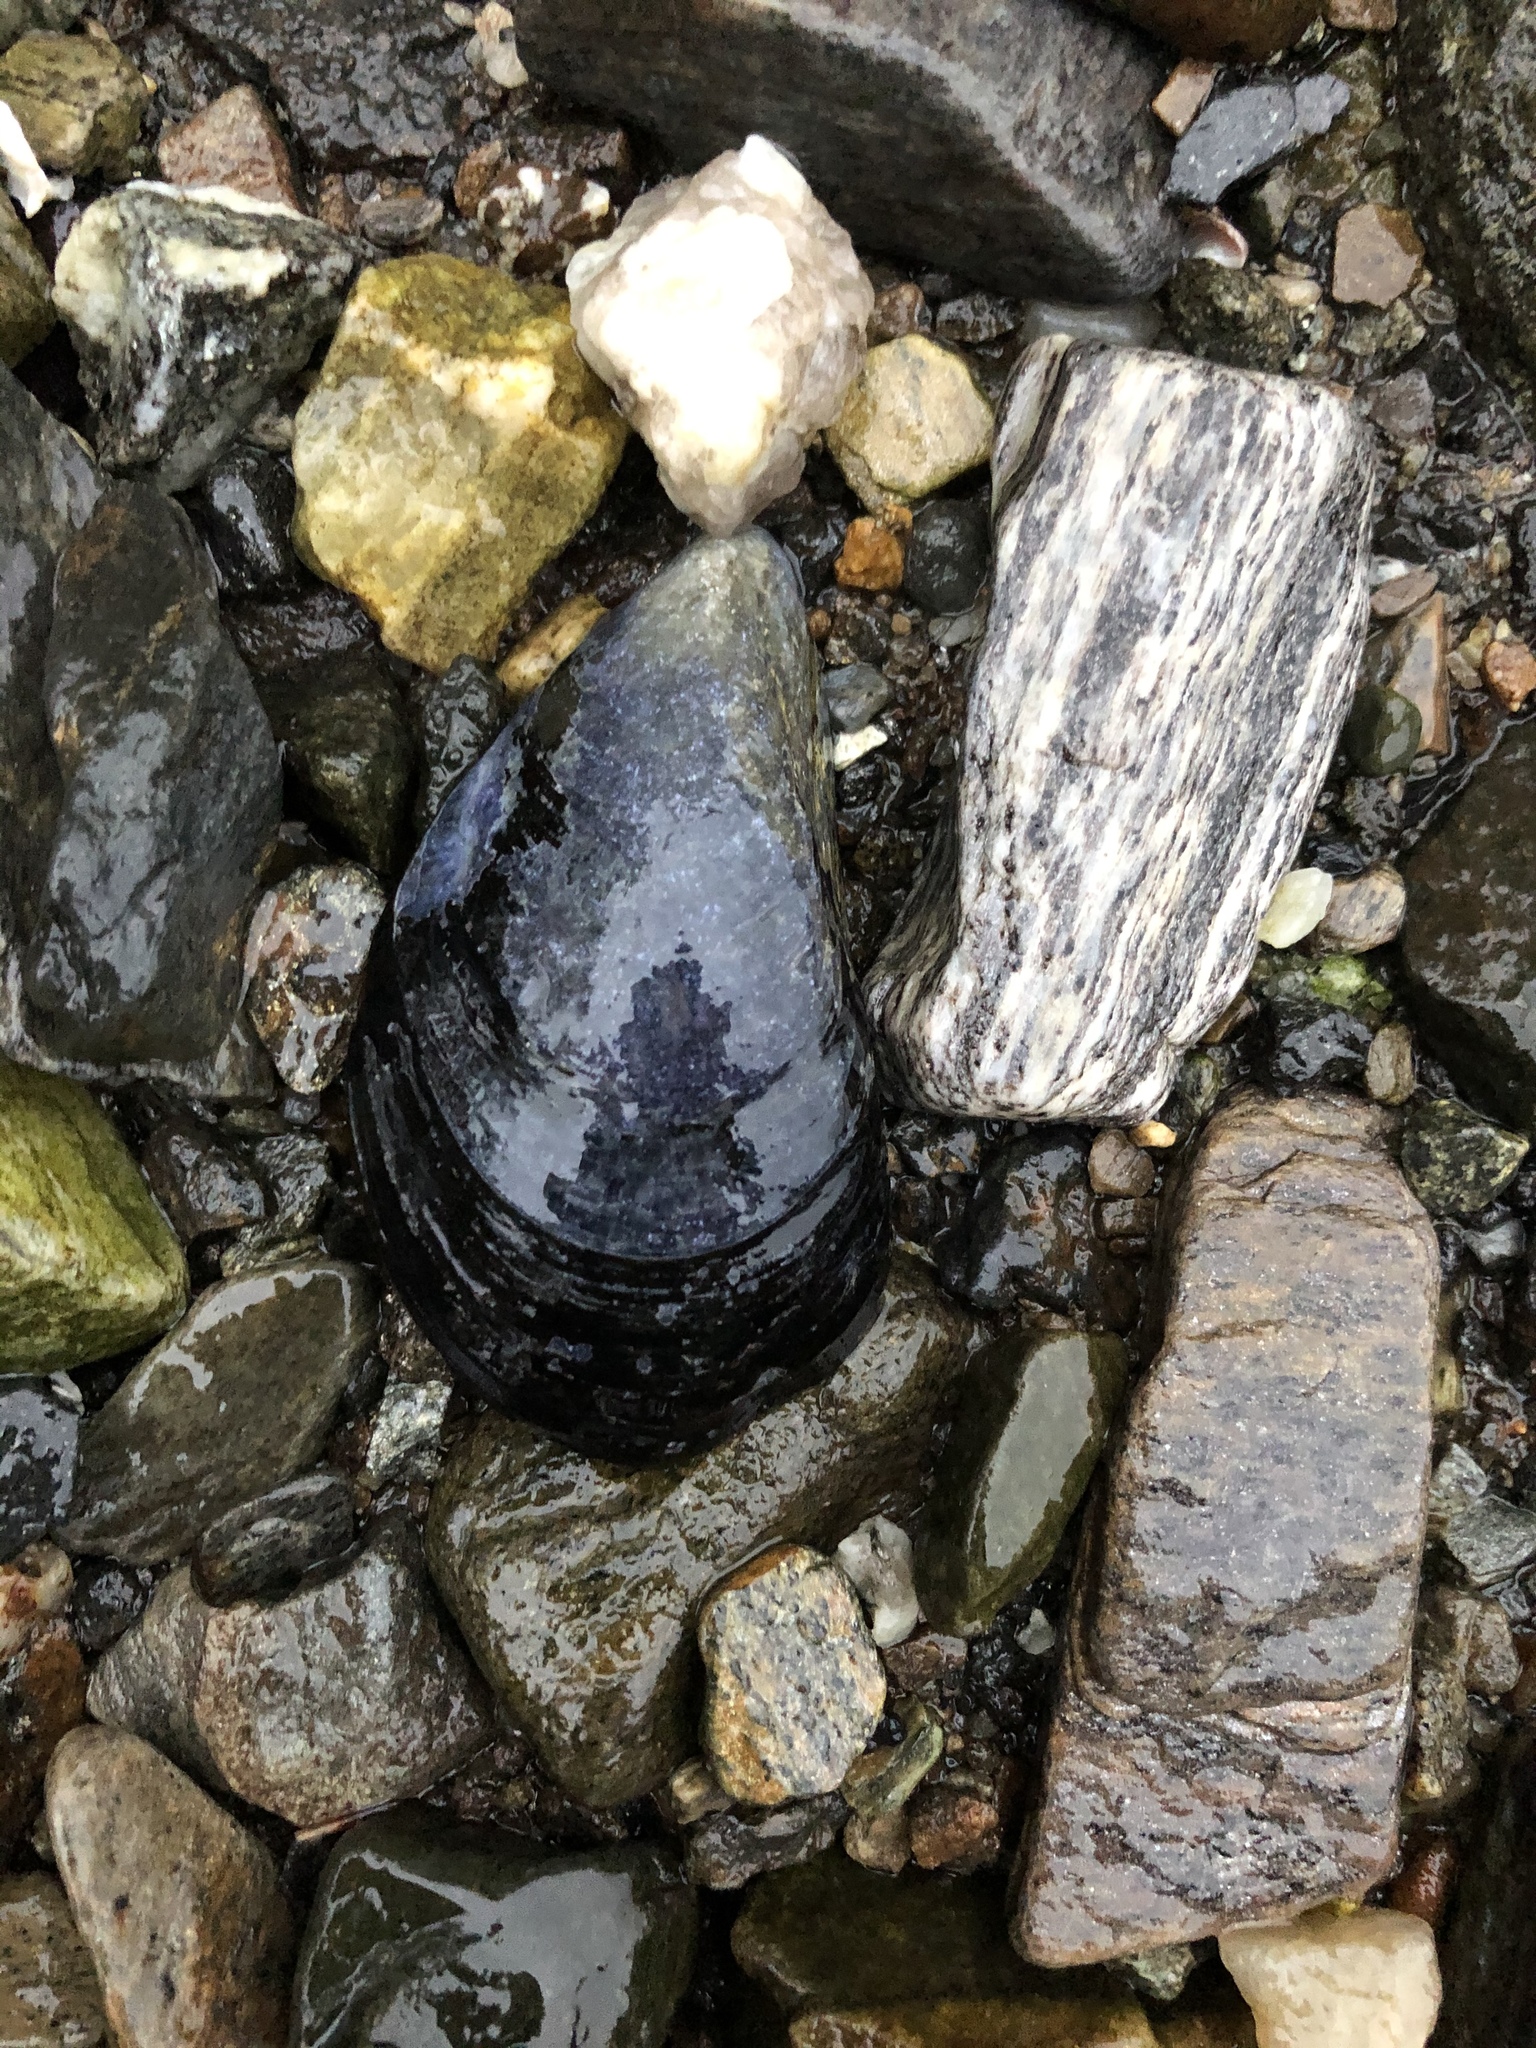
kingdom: Animalia
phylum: Mollusca
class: Bivalvia
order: Mytilida
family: Mytilidae
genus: Mytilus
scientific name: Mytilus edulis
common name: Blue mussel
